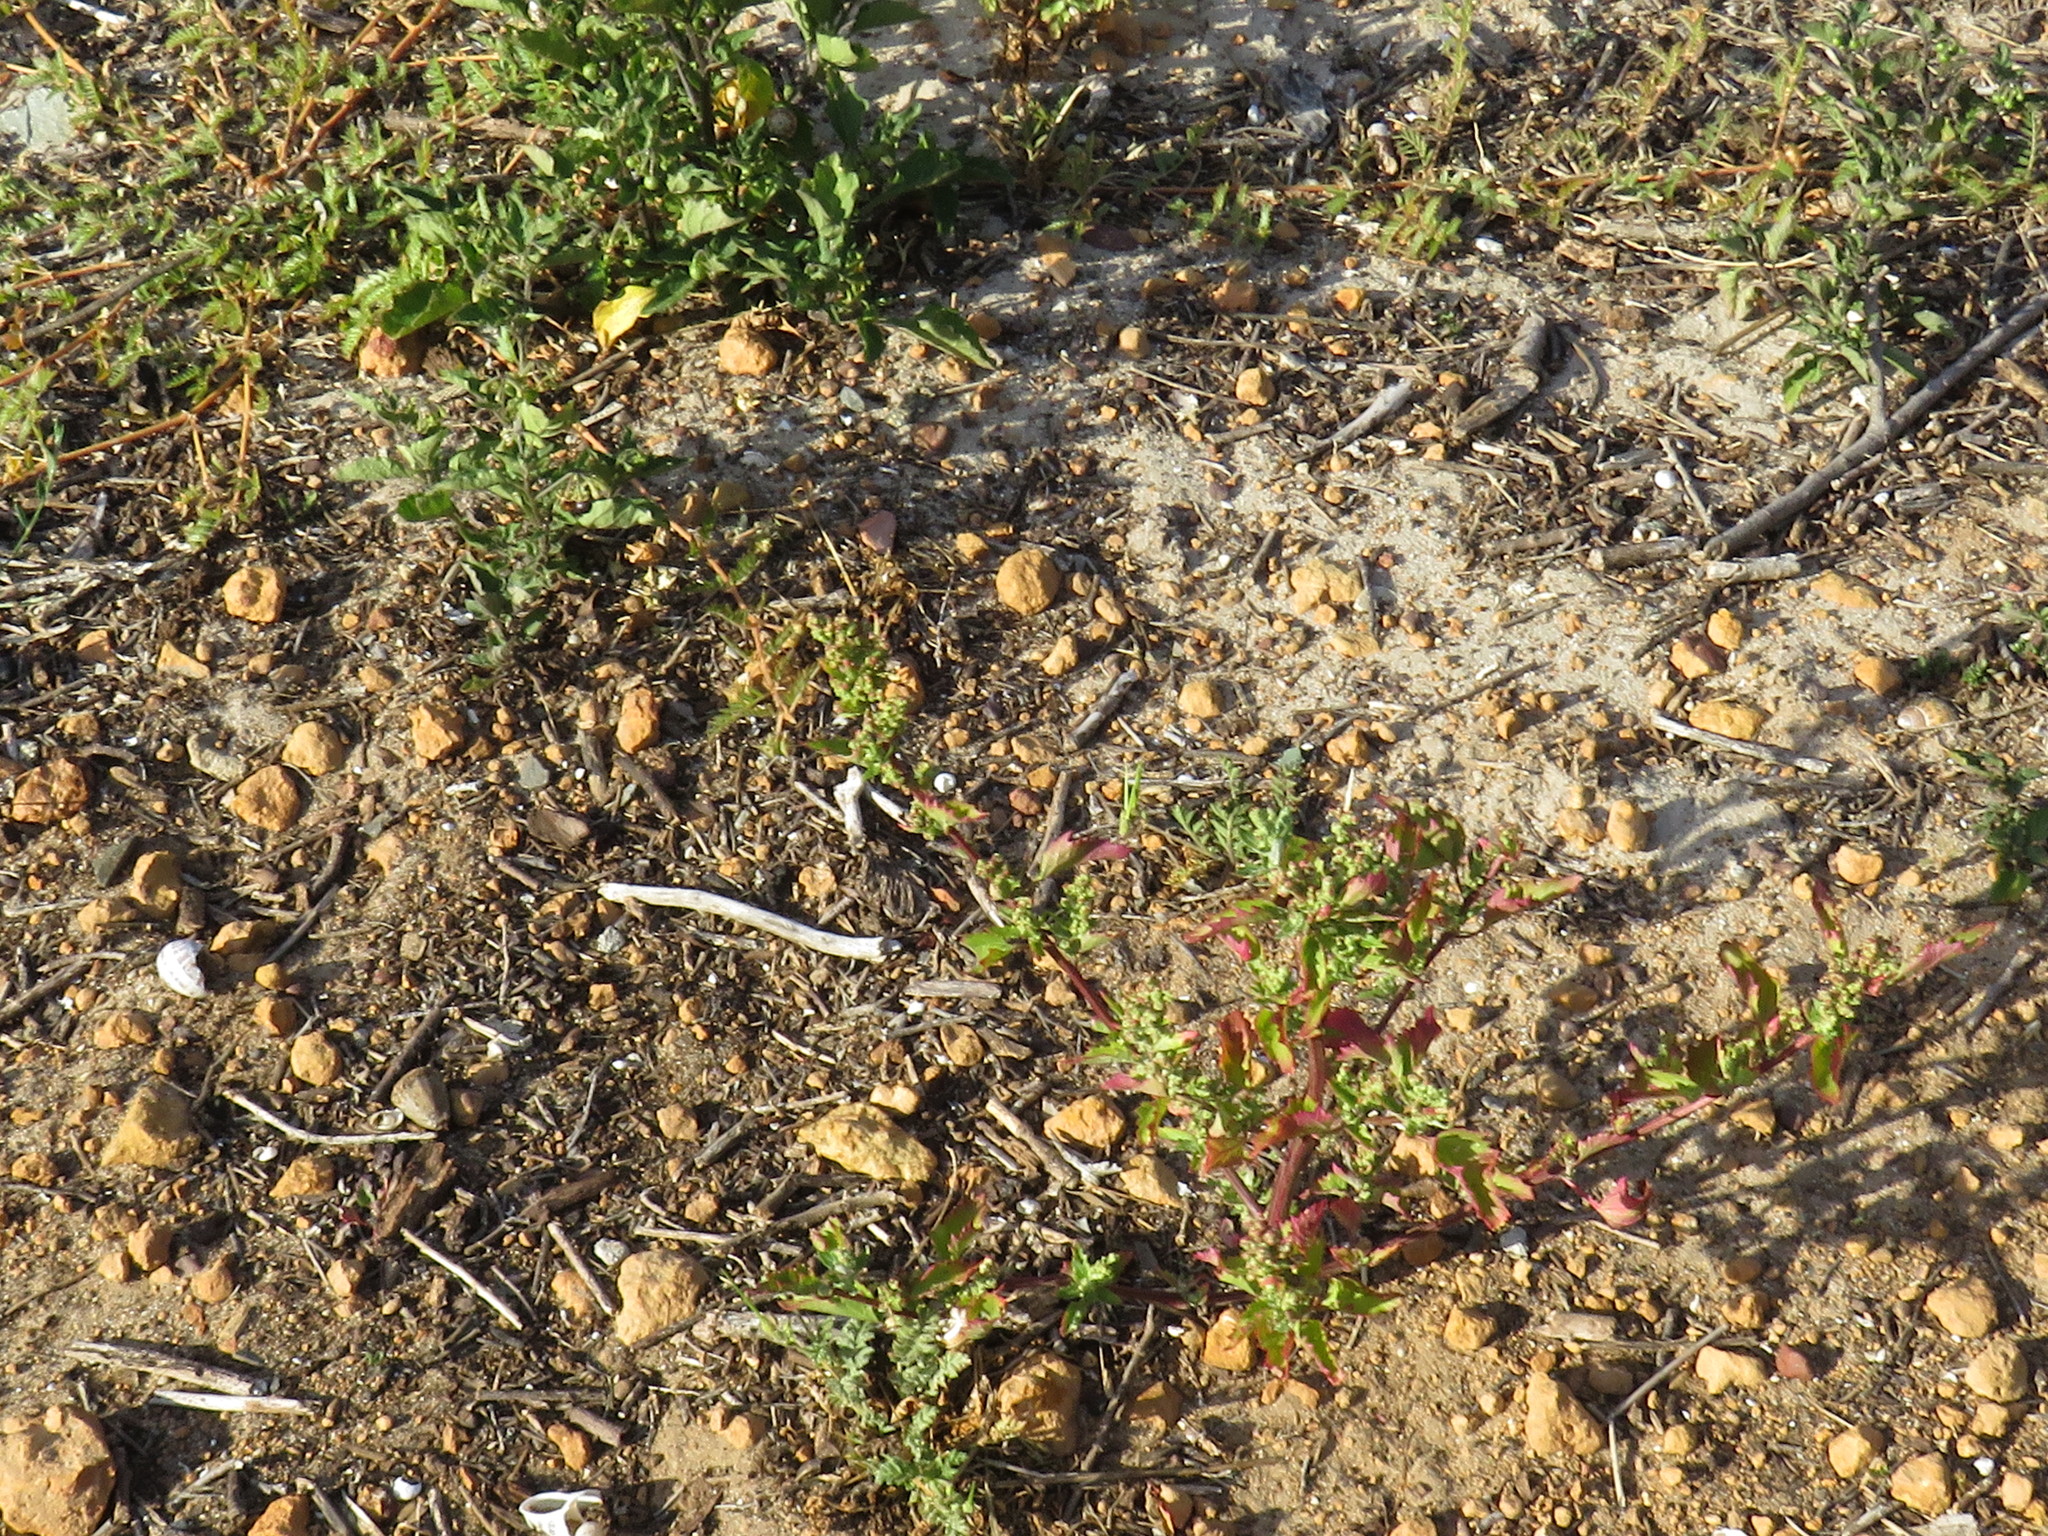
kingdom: Plantae
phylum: Tracheophyta
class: Magnoliopsida
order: Caryophyllales
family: Amaranthaceae
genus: Chenopodiastrum
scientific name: Chenopodiastrum murale
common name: Sowbane
